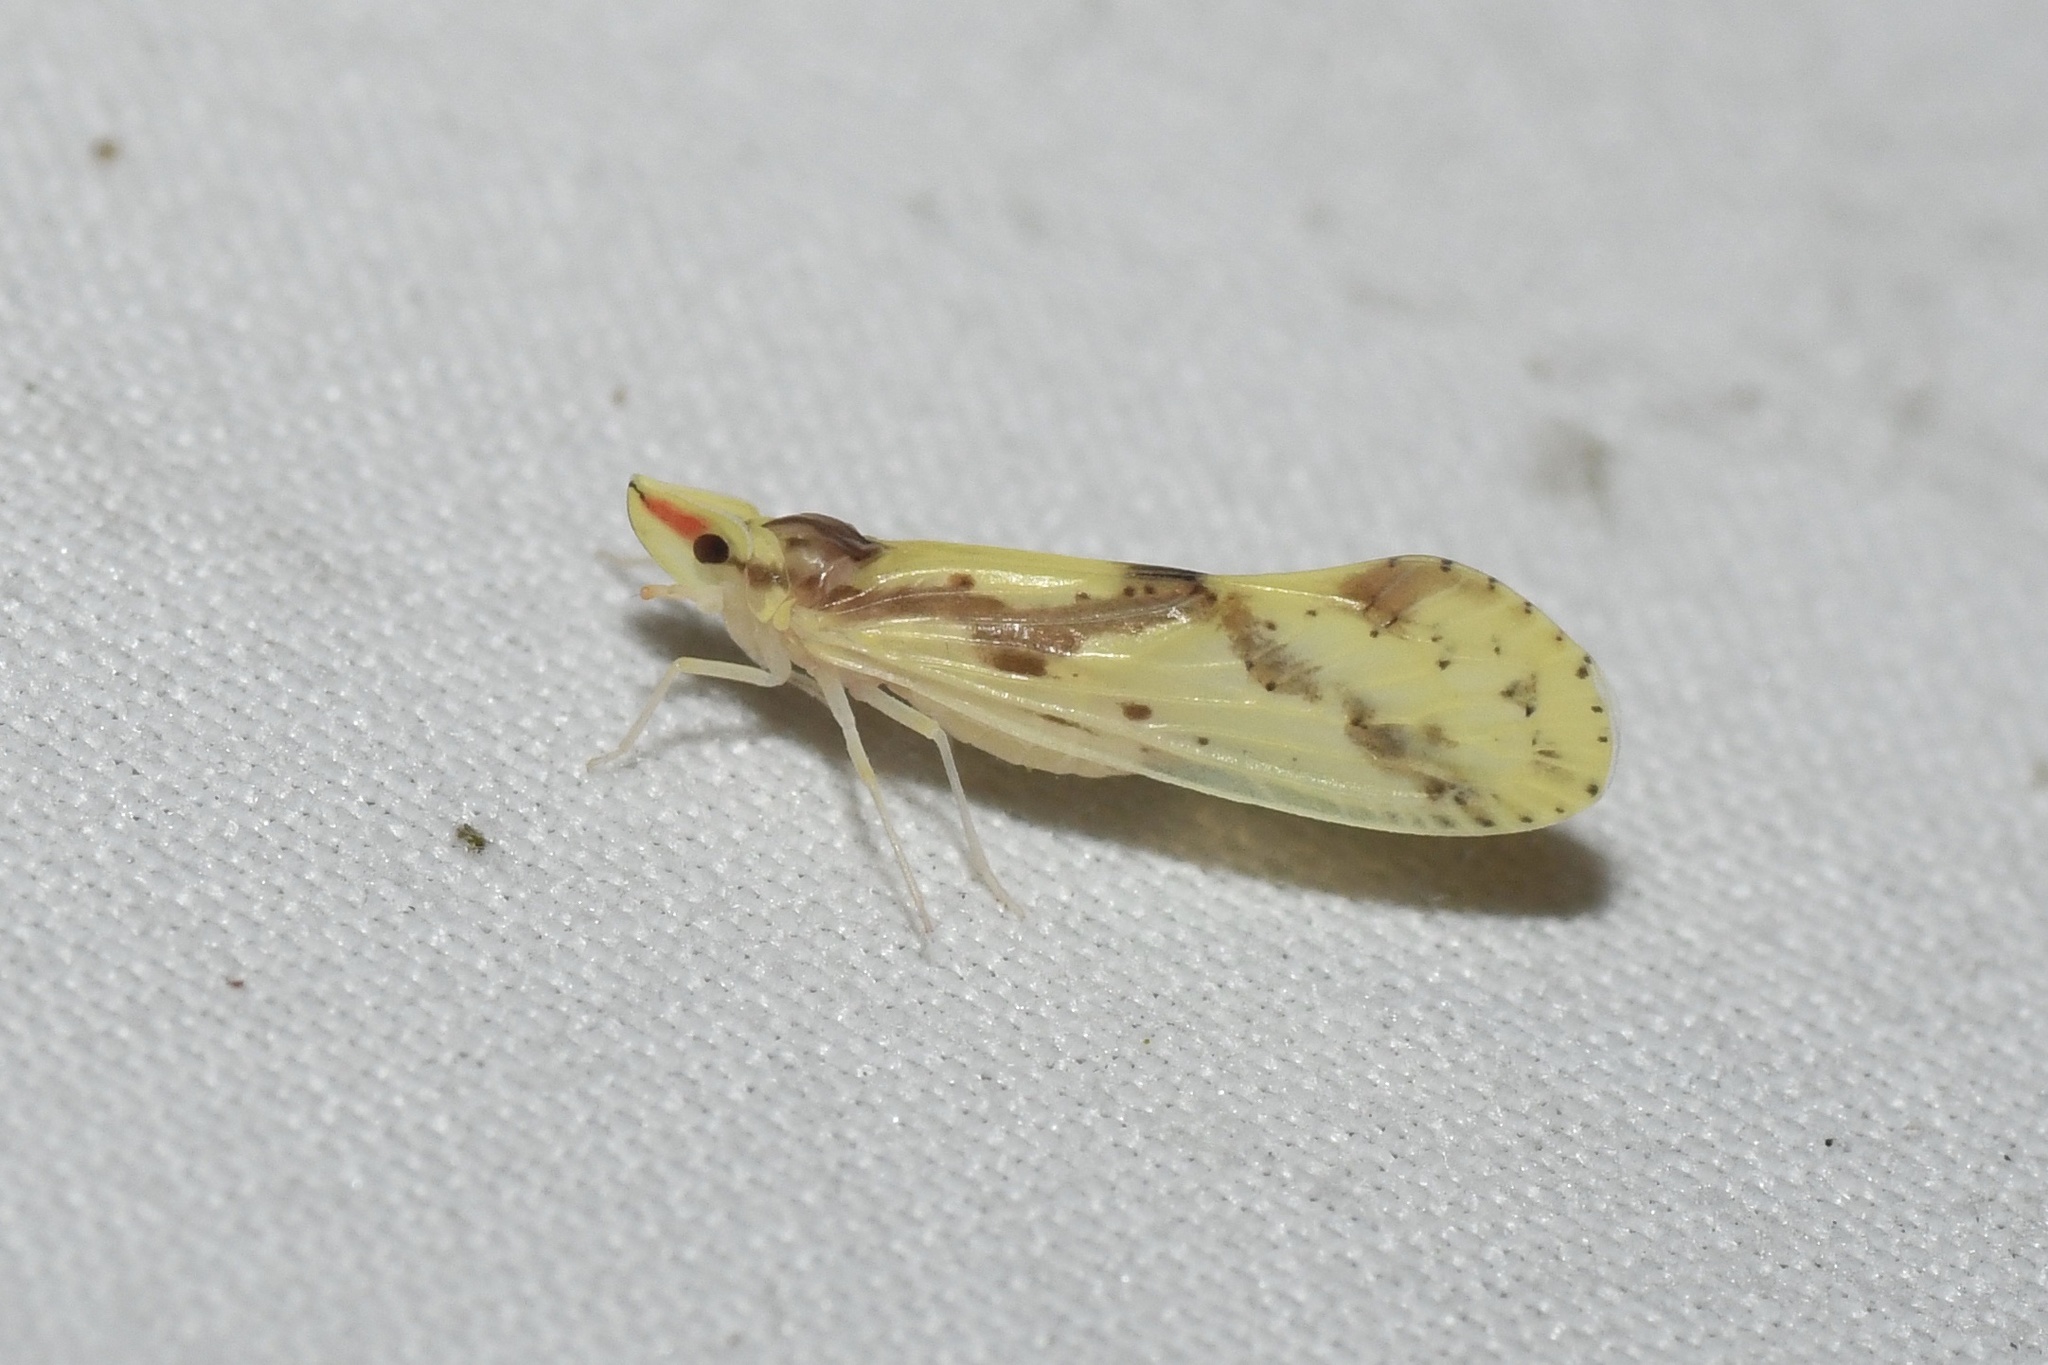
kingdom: Animalia
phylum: Arthropoda
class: Insecta
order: Hemiptera
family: Derbidae
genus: Otiocerus
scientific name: Otiocerus wolfii
